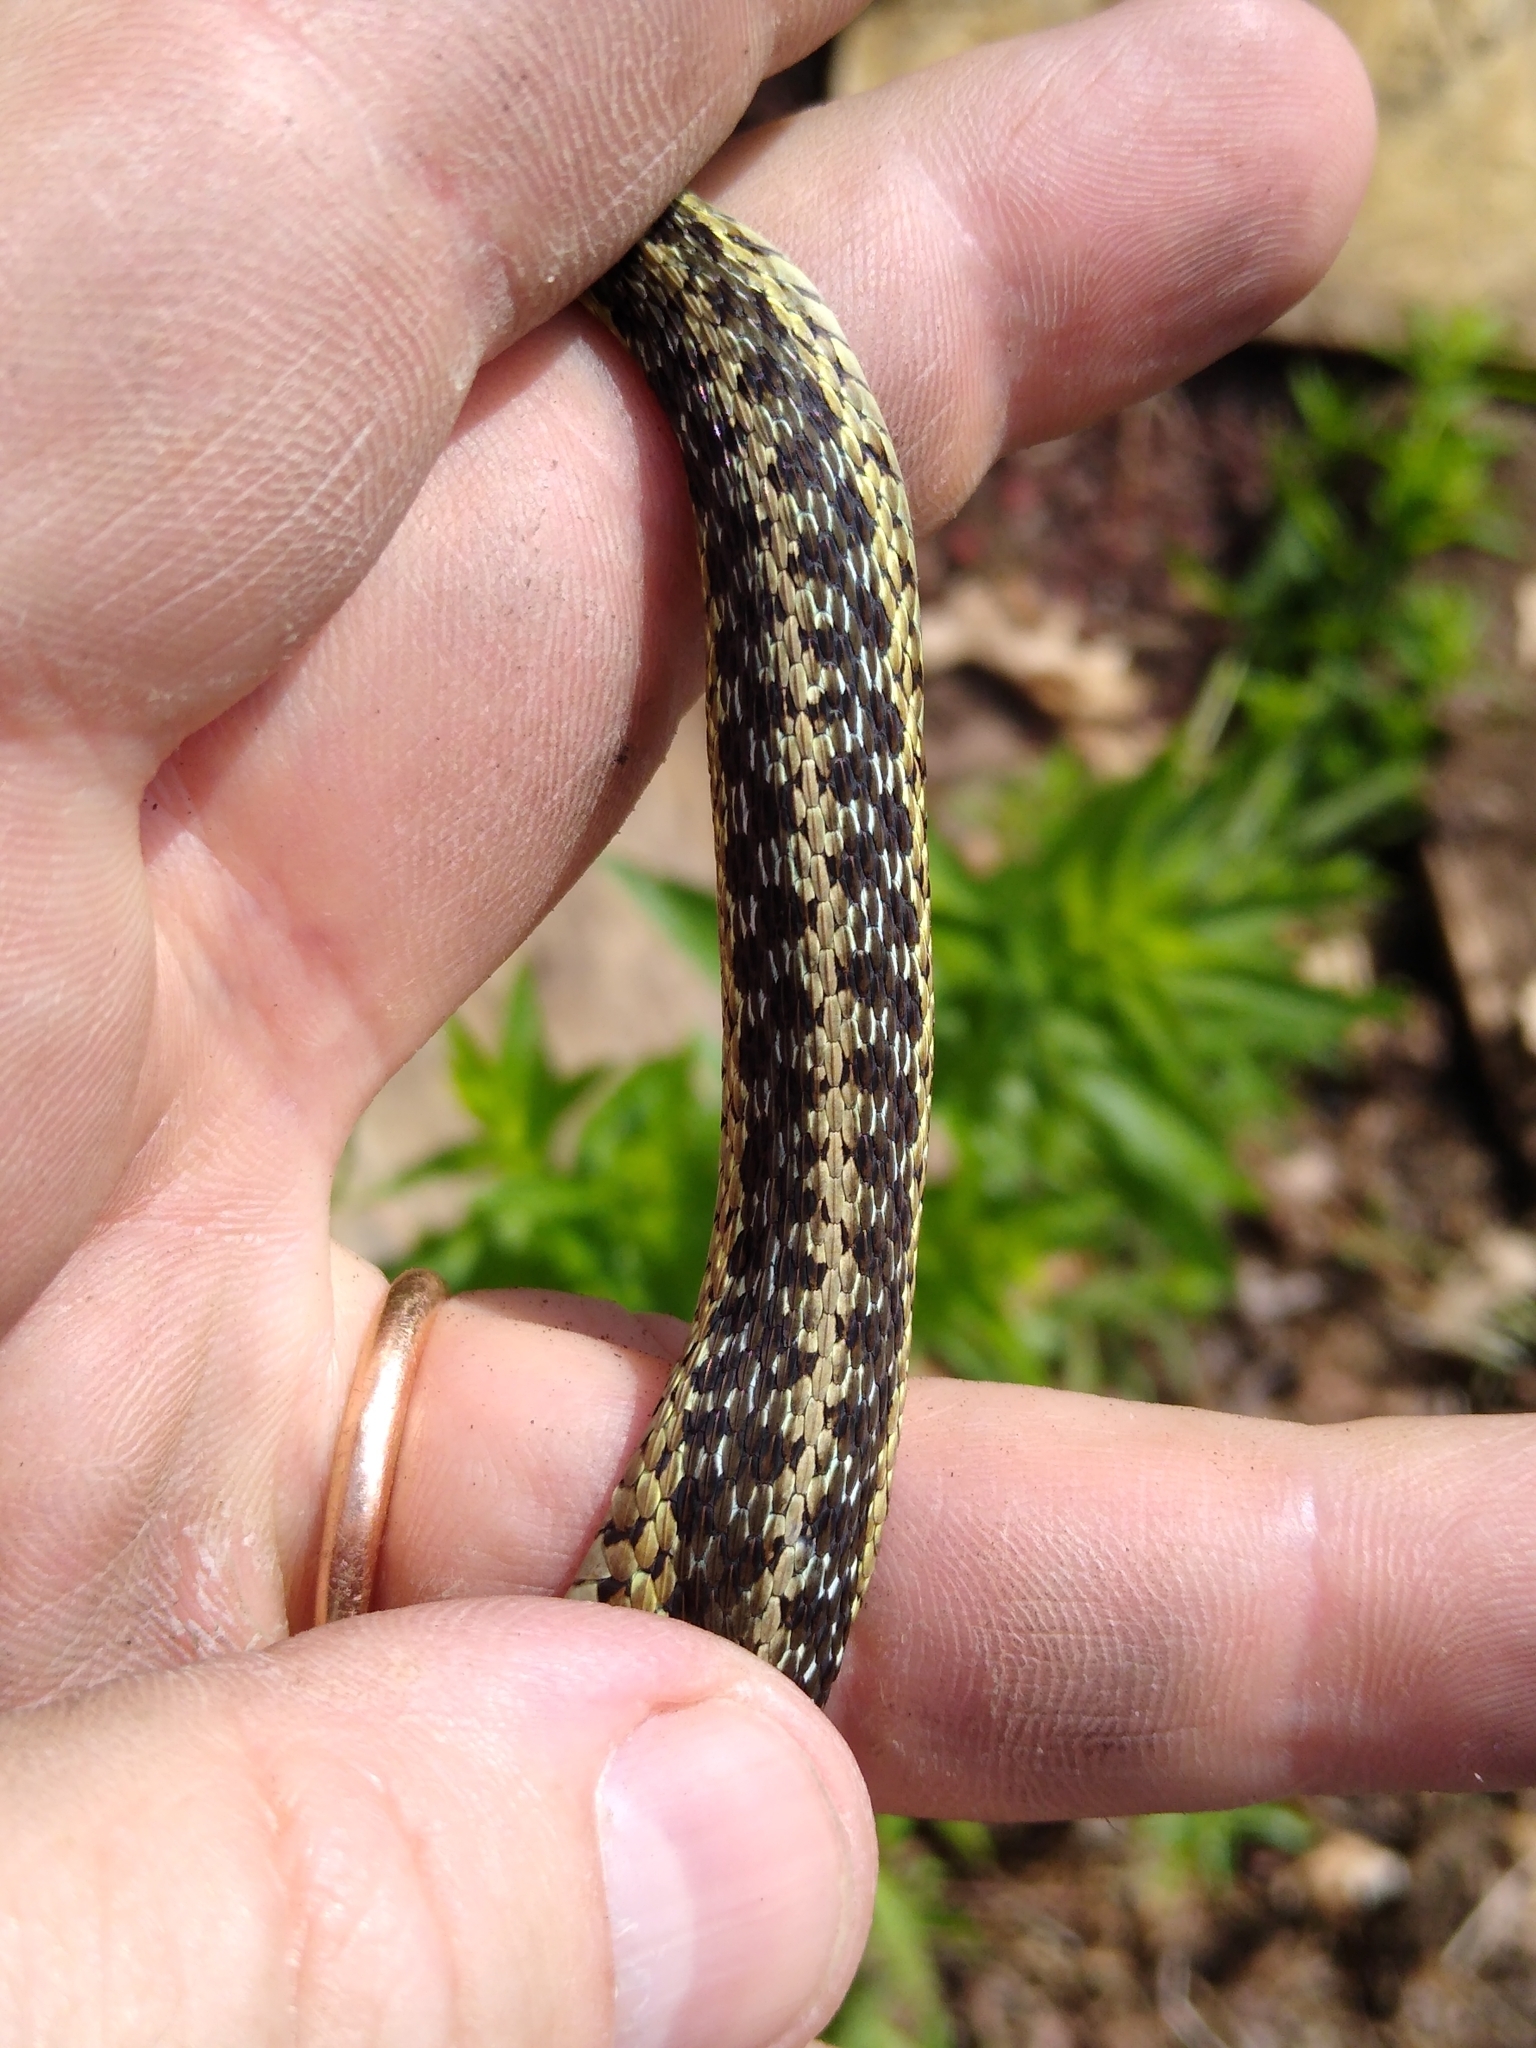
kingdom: Animalia
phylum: Chordata
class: Squamata
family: Colubridae
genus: Thamnophis
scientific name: Thamnophis sirtalis
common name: Common garter snake
